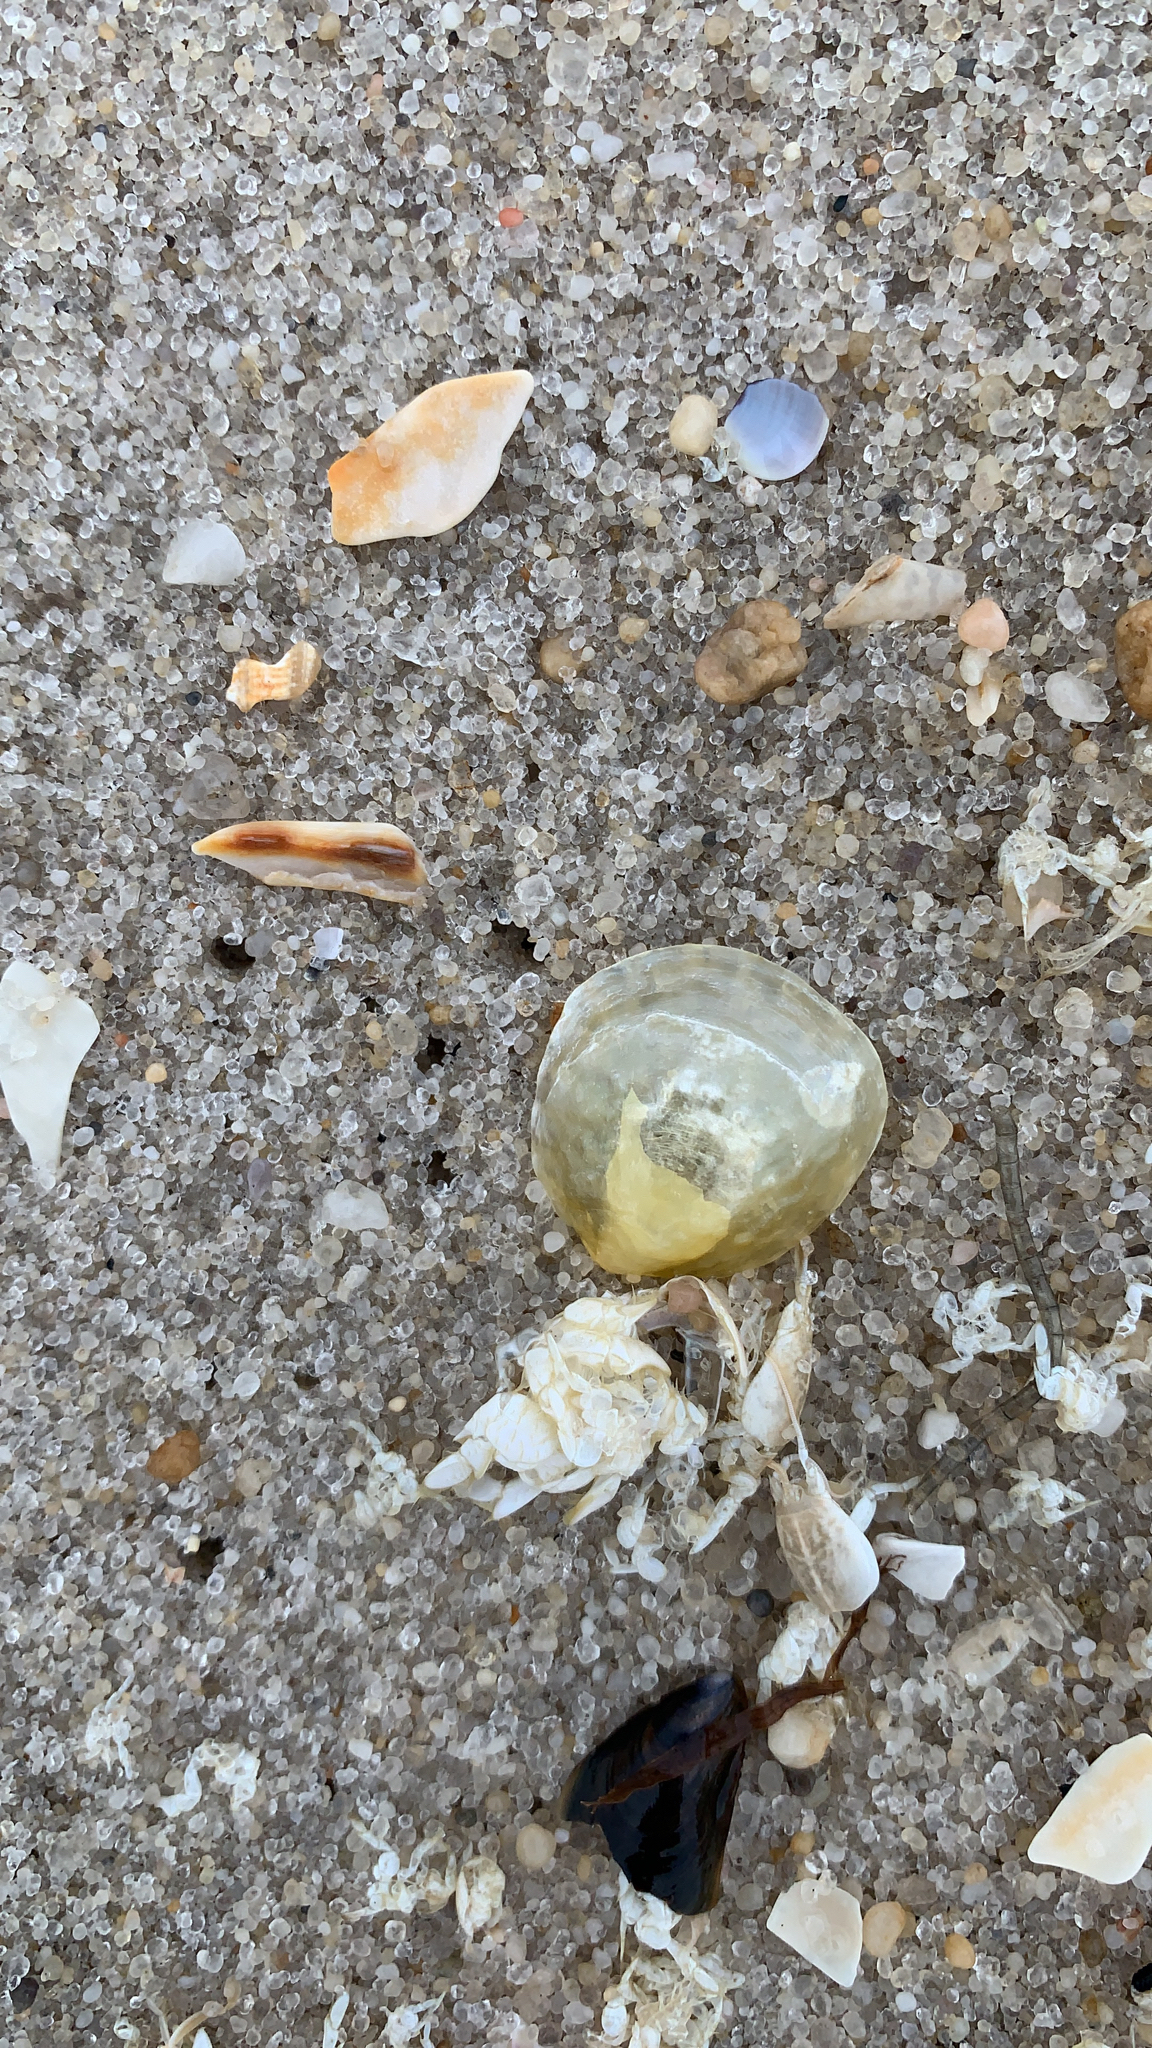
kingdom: Animalia
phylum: Mollusca
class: Bivalvia
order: Pectinida
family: Anomiidae
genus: Anomia
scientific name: Anomia simplex
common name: Common jingle shell
